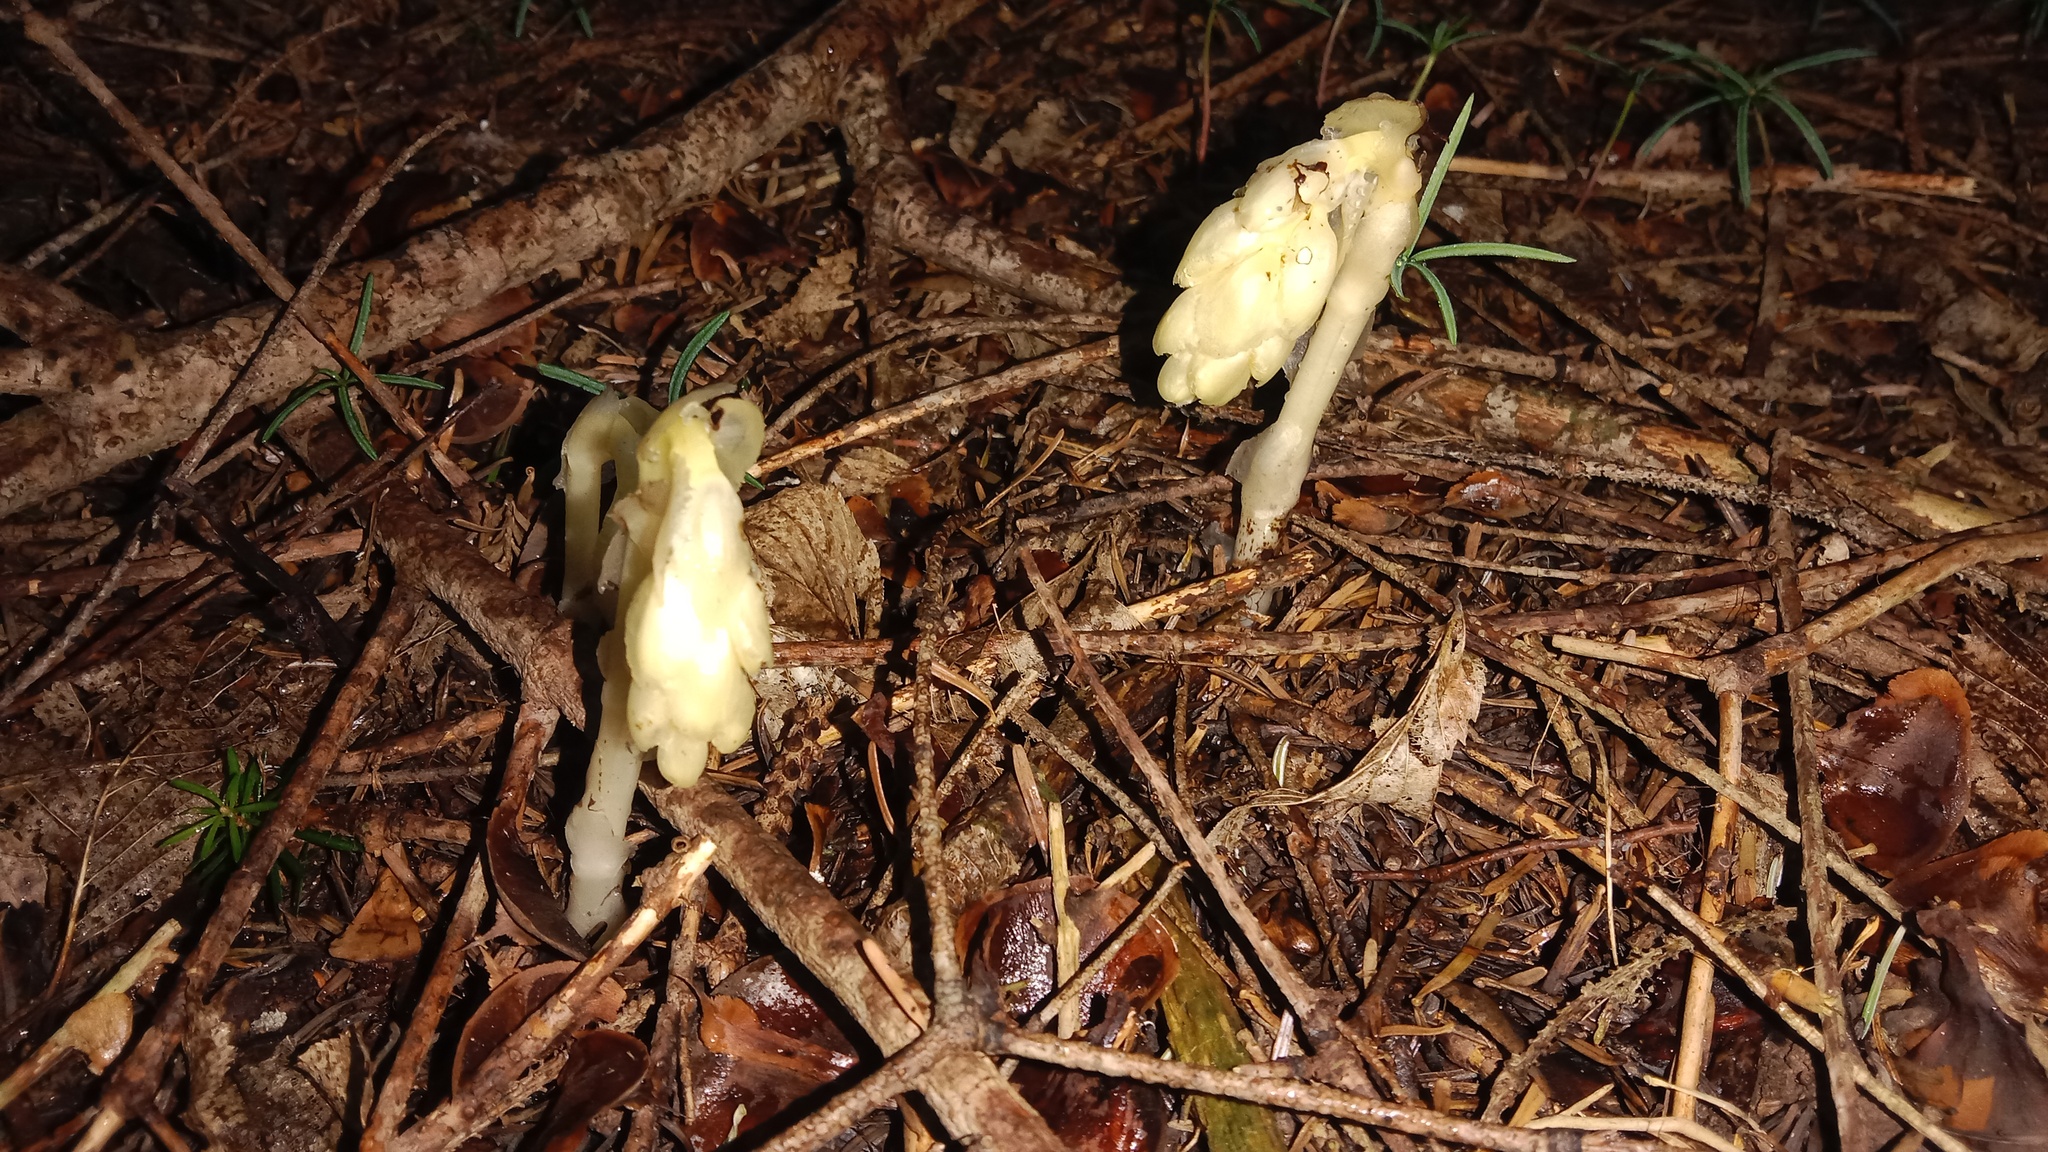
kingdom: Plantae
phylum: Tracheophyta
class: Magnoliopsida
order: Ericales
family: Ericaceae
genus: Hypopitys
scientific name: Hypopitys monotropa
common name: Yellow bird's-nest
